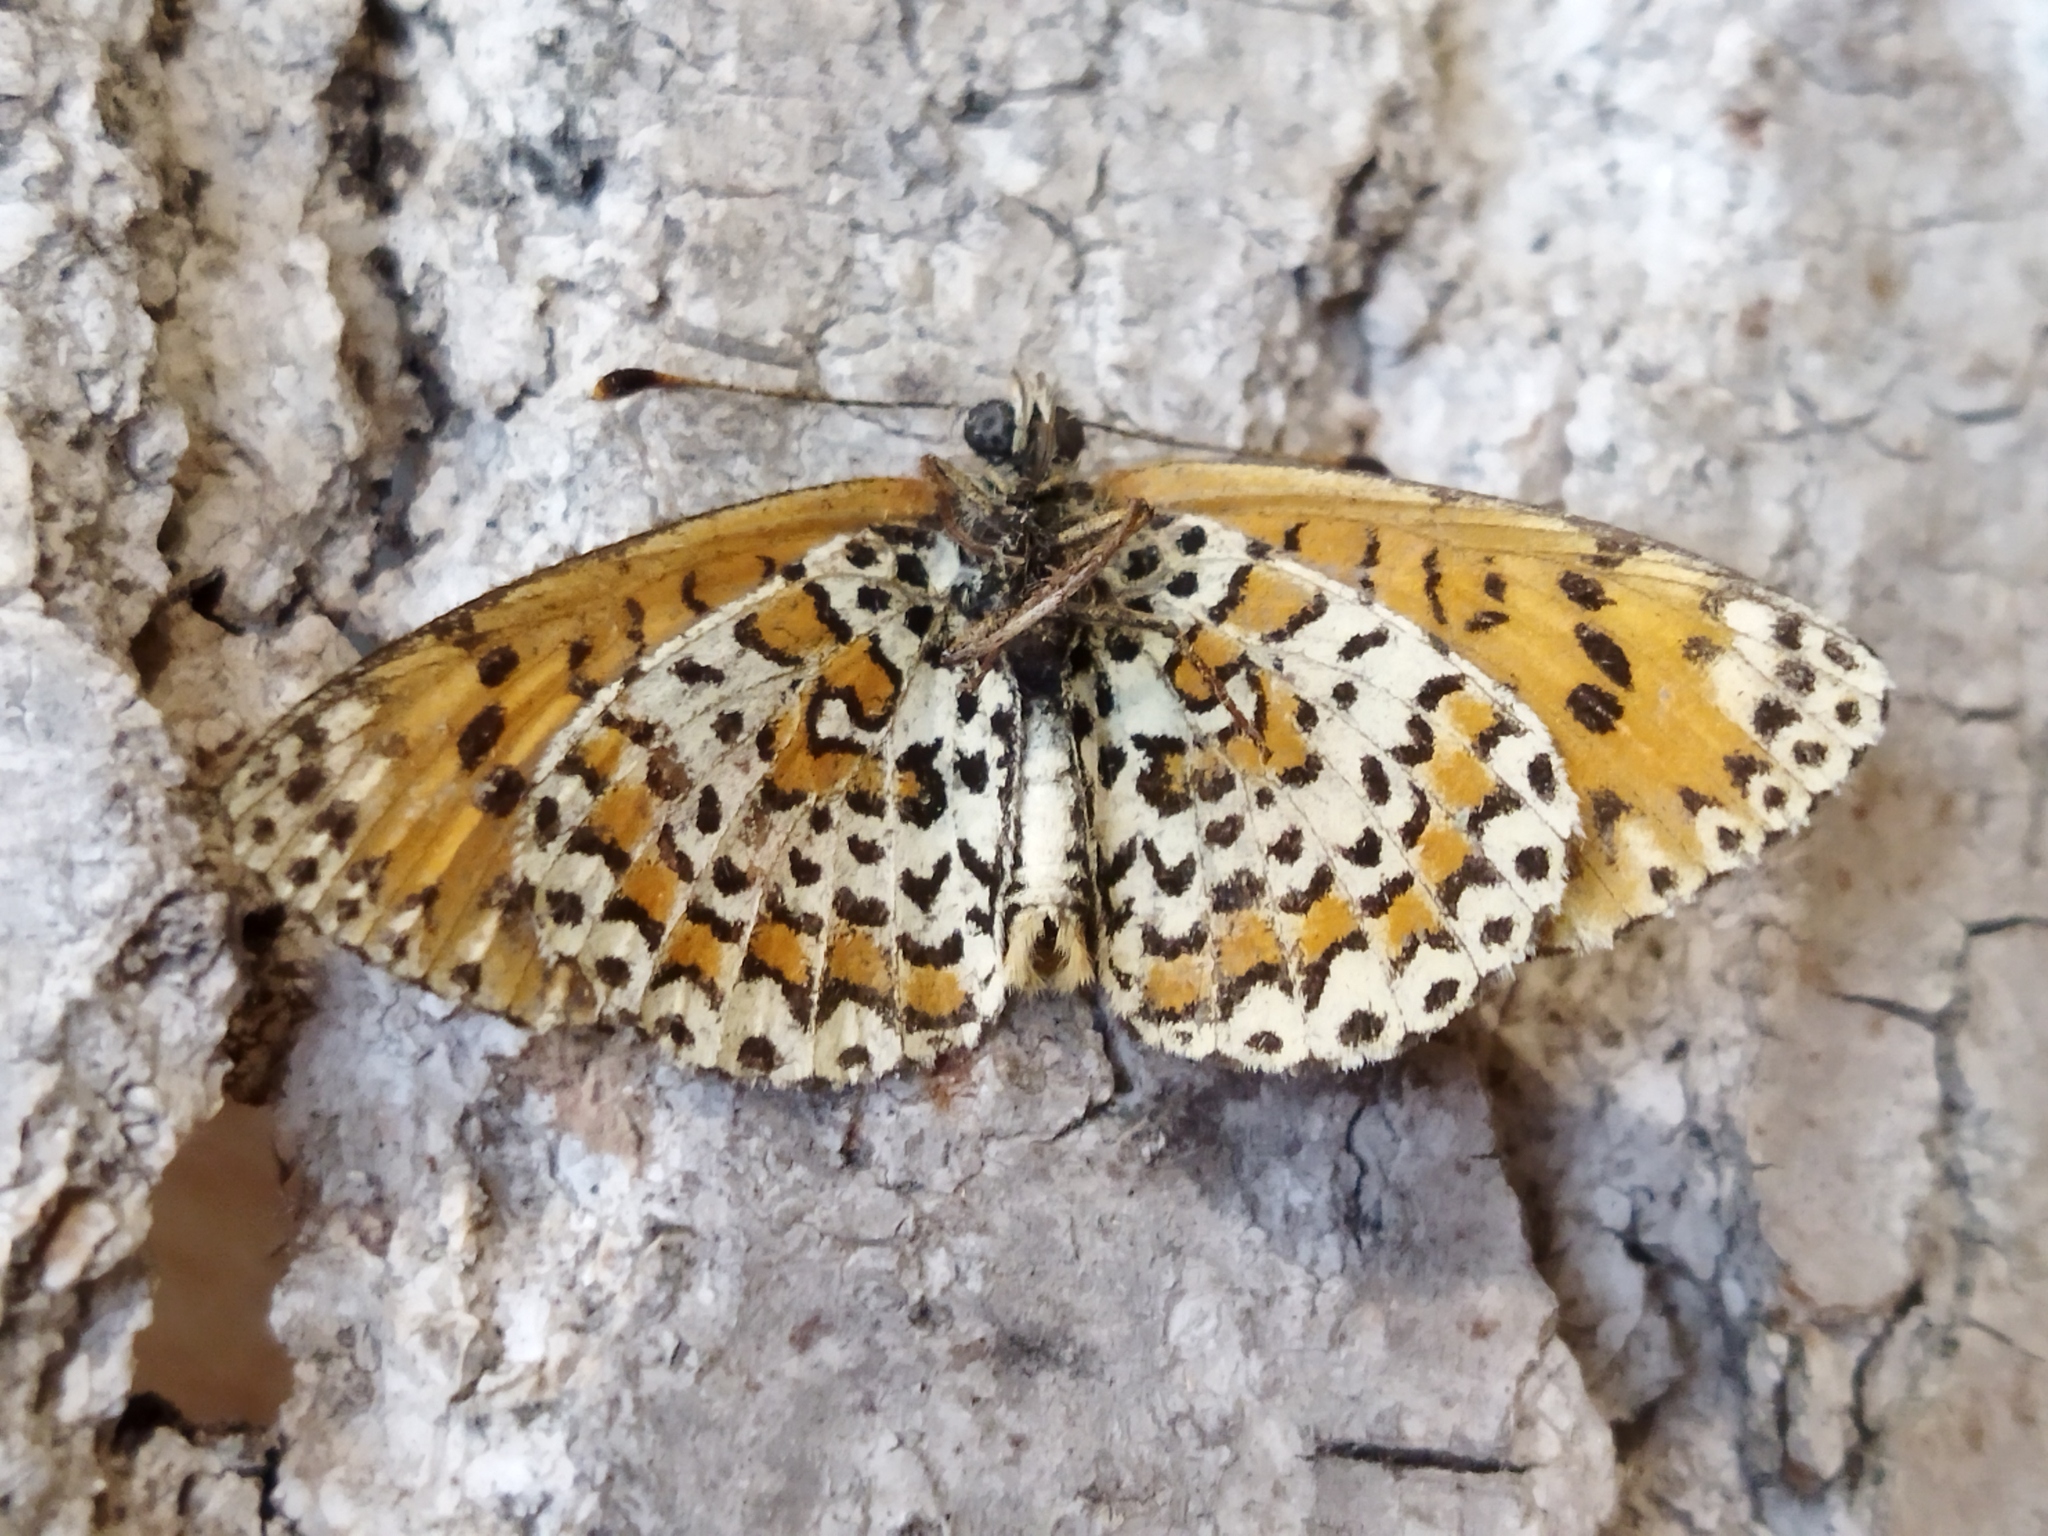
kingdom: Animalia
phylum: Arthropoda
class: Insecta
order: Lepidoptera
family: Nymphalidae
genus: Melitaea
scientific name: Melitaea trivia
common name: Lesser spotted fritillary
